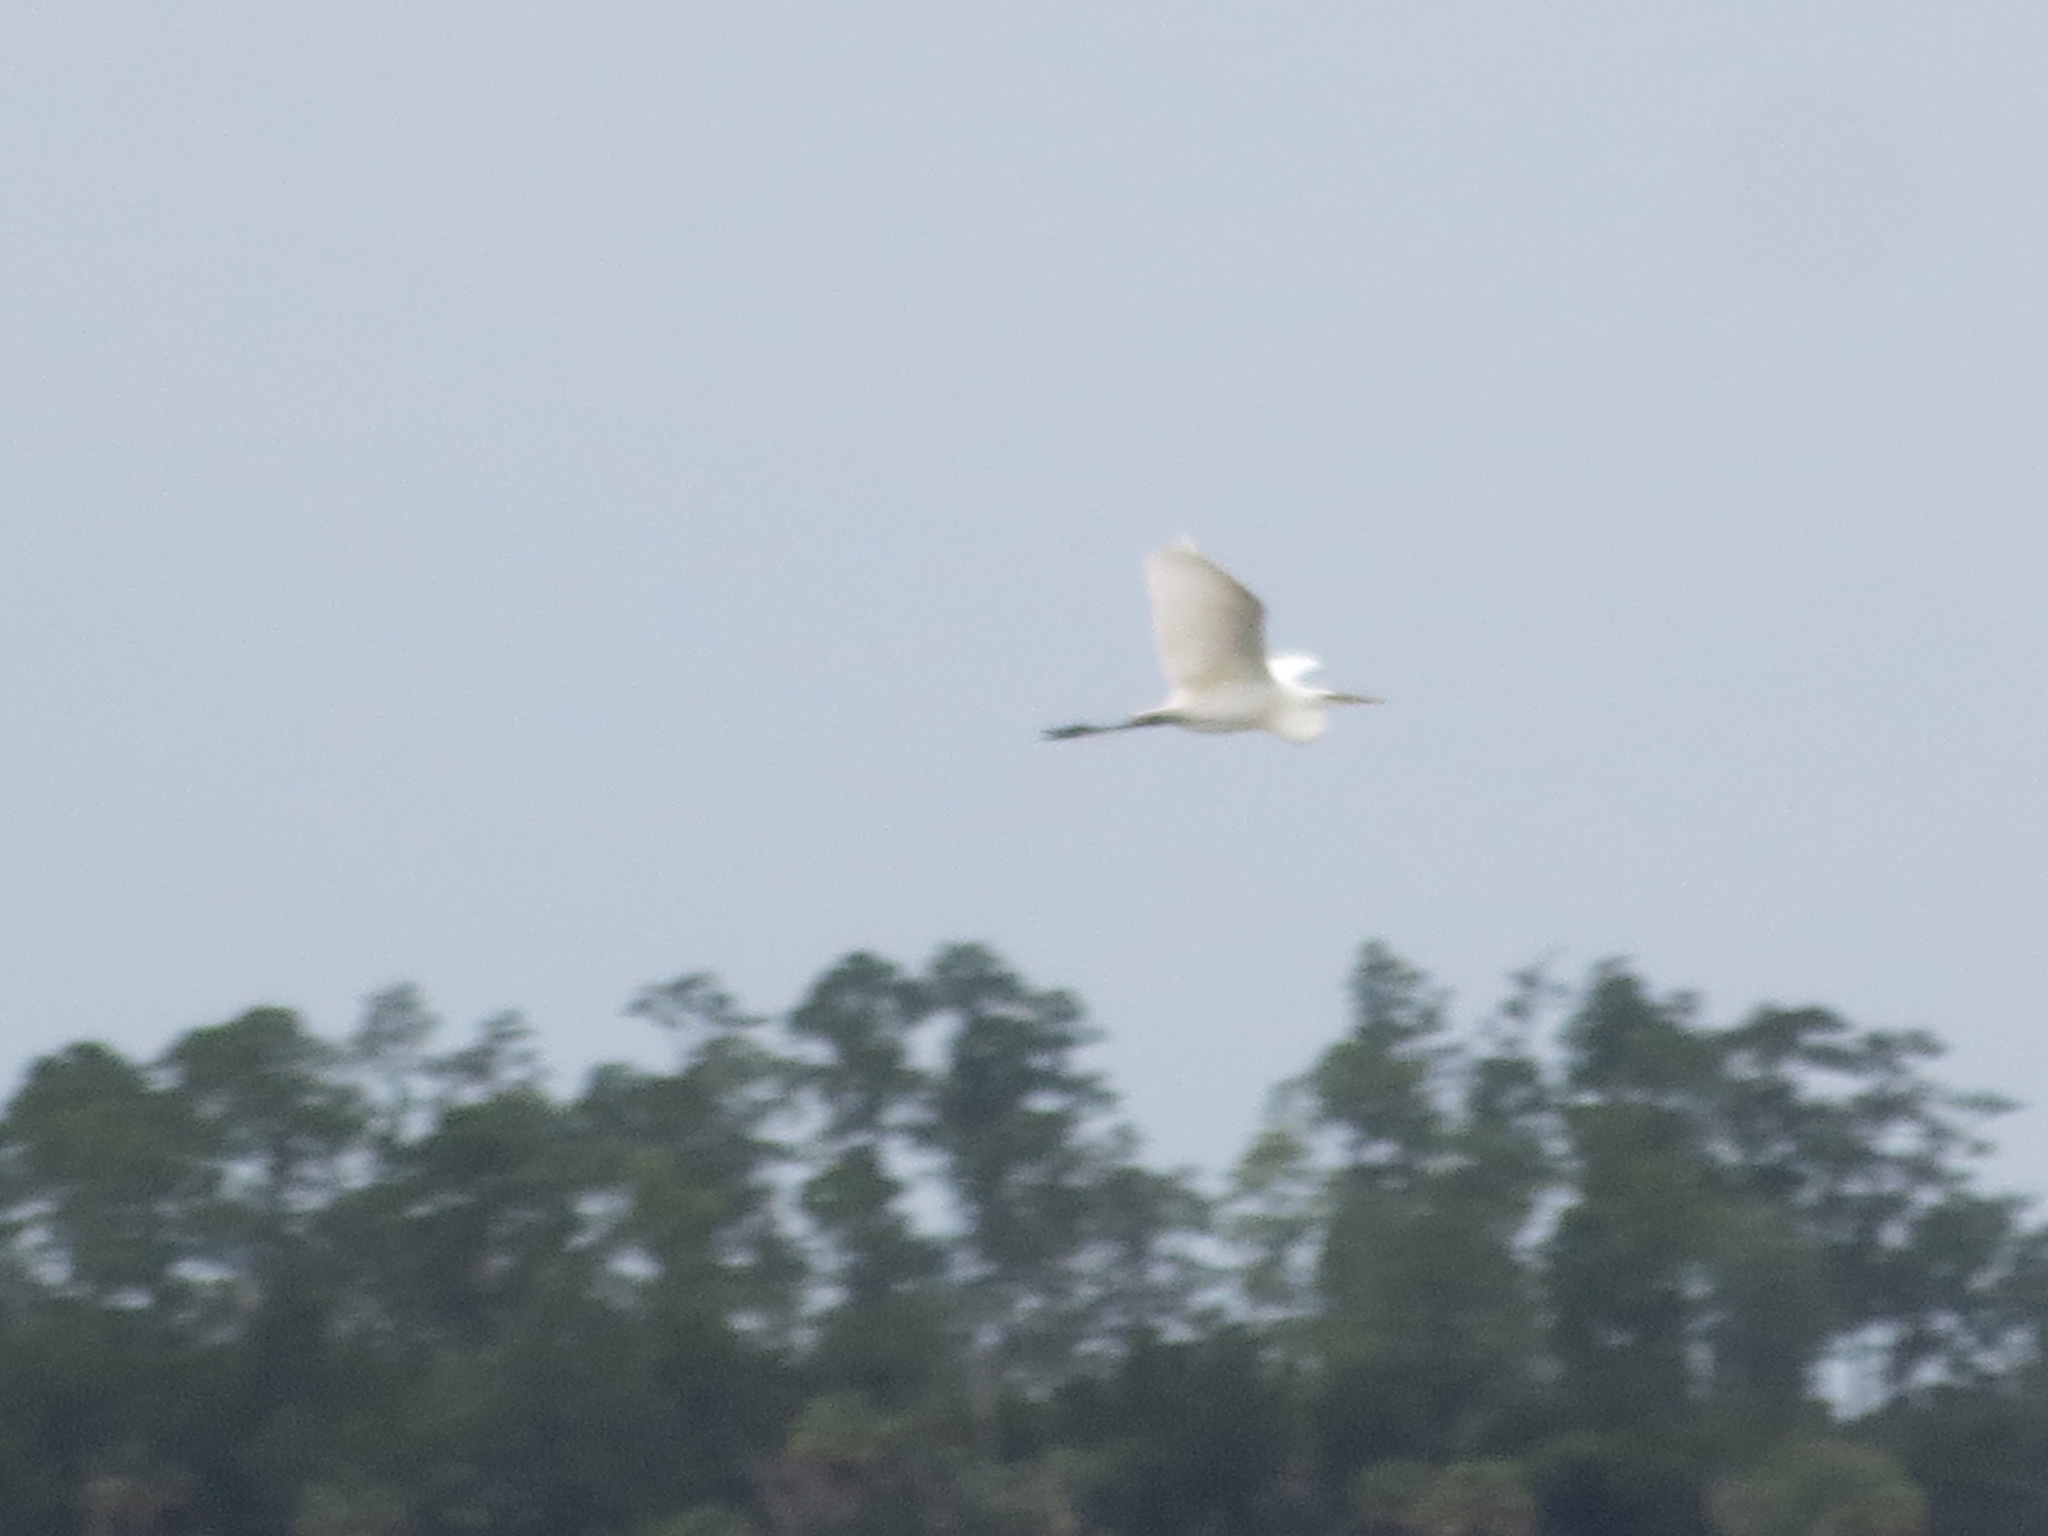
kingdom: Animalia
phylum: Chordata
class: Aves
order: Pelecaniformes
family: Ardeidae
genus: Ardea
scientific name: Ardea alba
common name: Great egret
